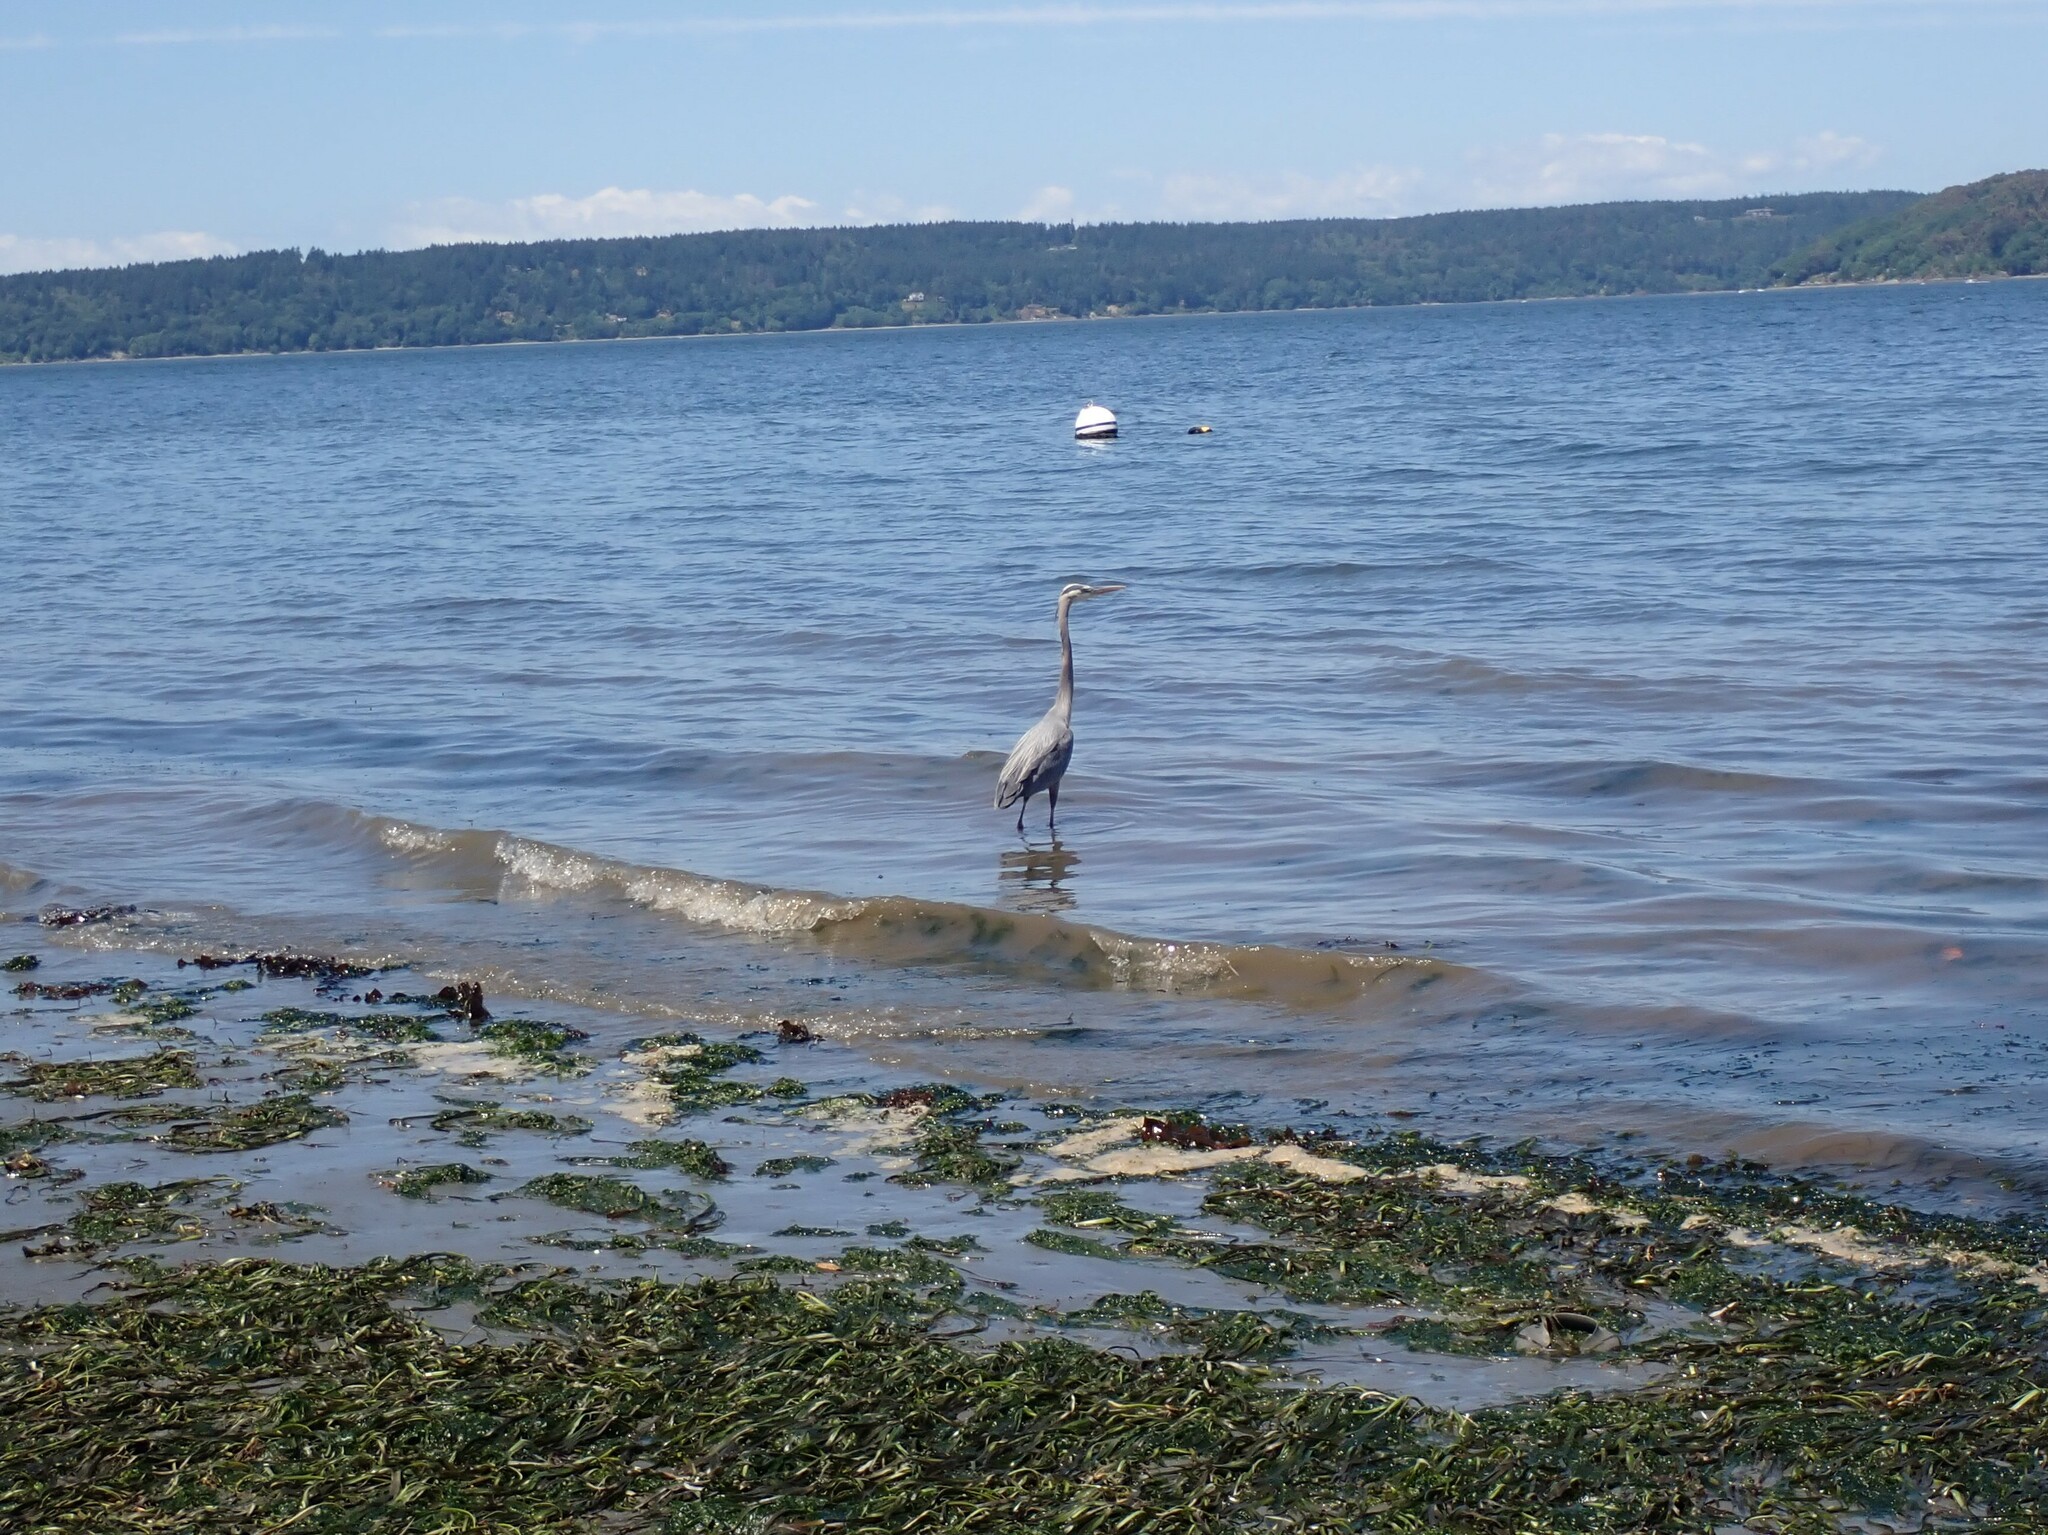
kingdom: Animalia
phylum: Chordata
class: Aves
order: Pelecaniformes
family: Ardeidae
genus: Ardea
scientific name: Ardea herodias
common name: Great blue heron
